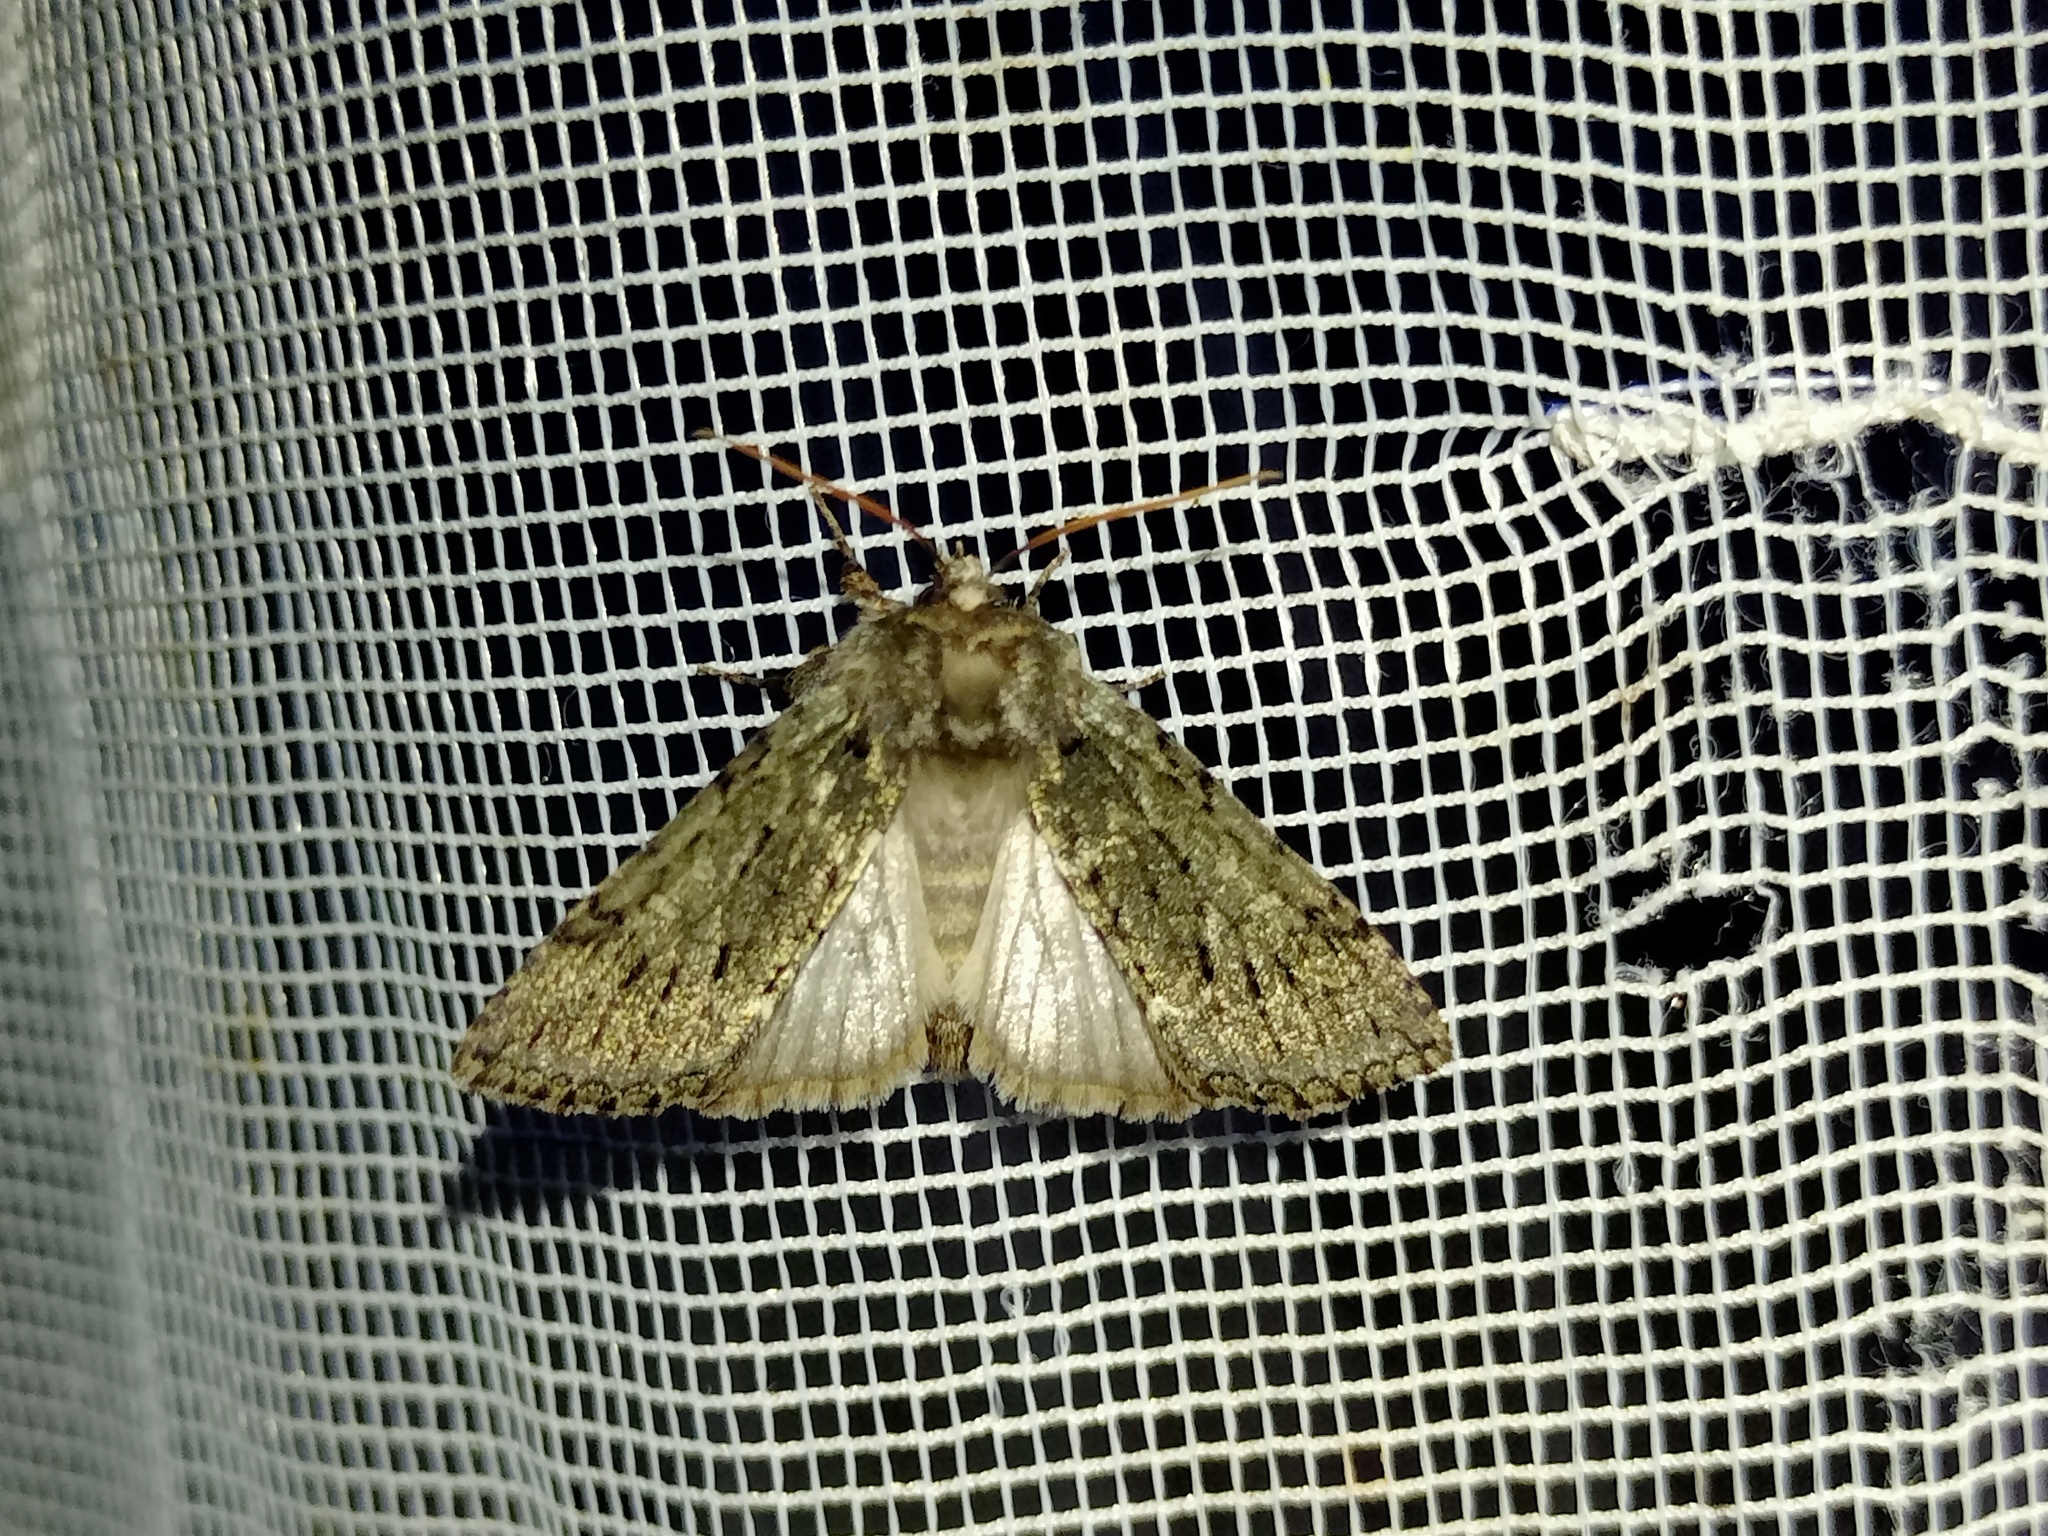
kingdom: Animalia
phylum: Arthropoda
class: Insecta
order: Lepidoptera
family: Drepanidae
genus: Polyploca
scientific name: Polyploca ridens
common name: Frosted green
